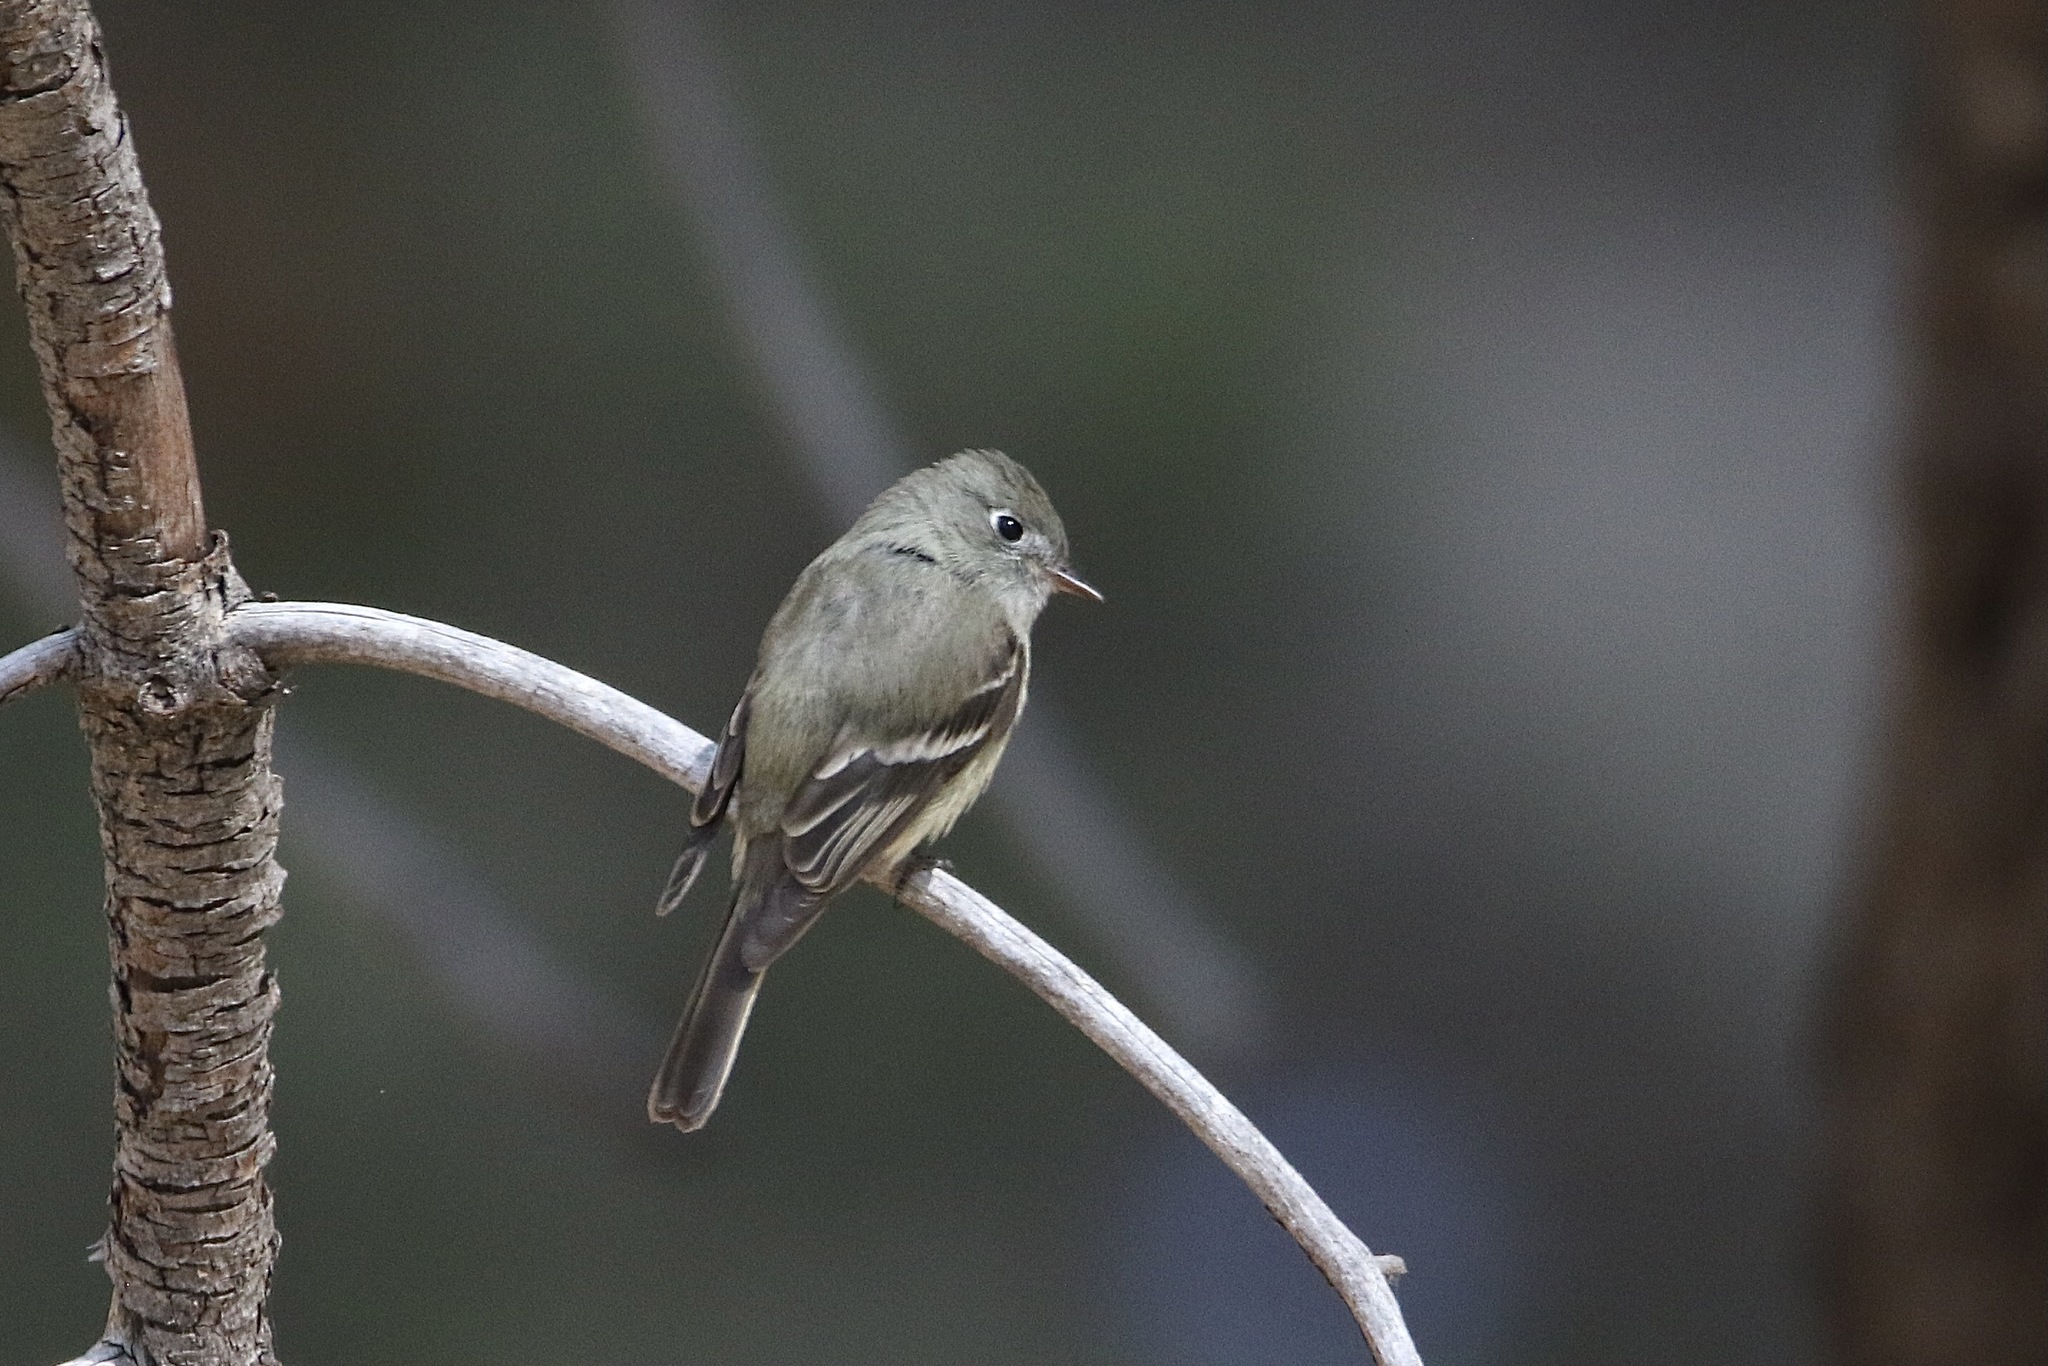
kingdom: Animalia
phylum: Chordata
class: Aves
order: Passeriformes
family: Tyrannidae
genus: Empidonax
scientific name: Empidonax hammondii
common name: Hammond's flycatcher
